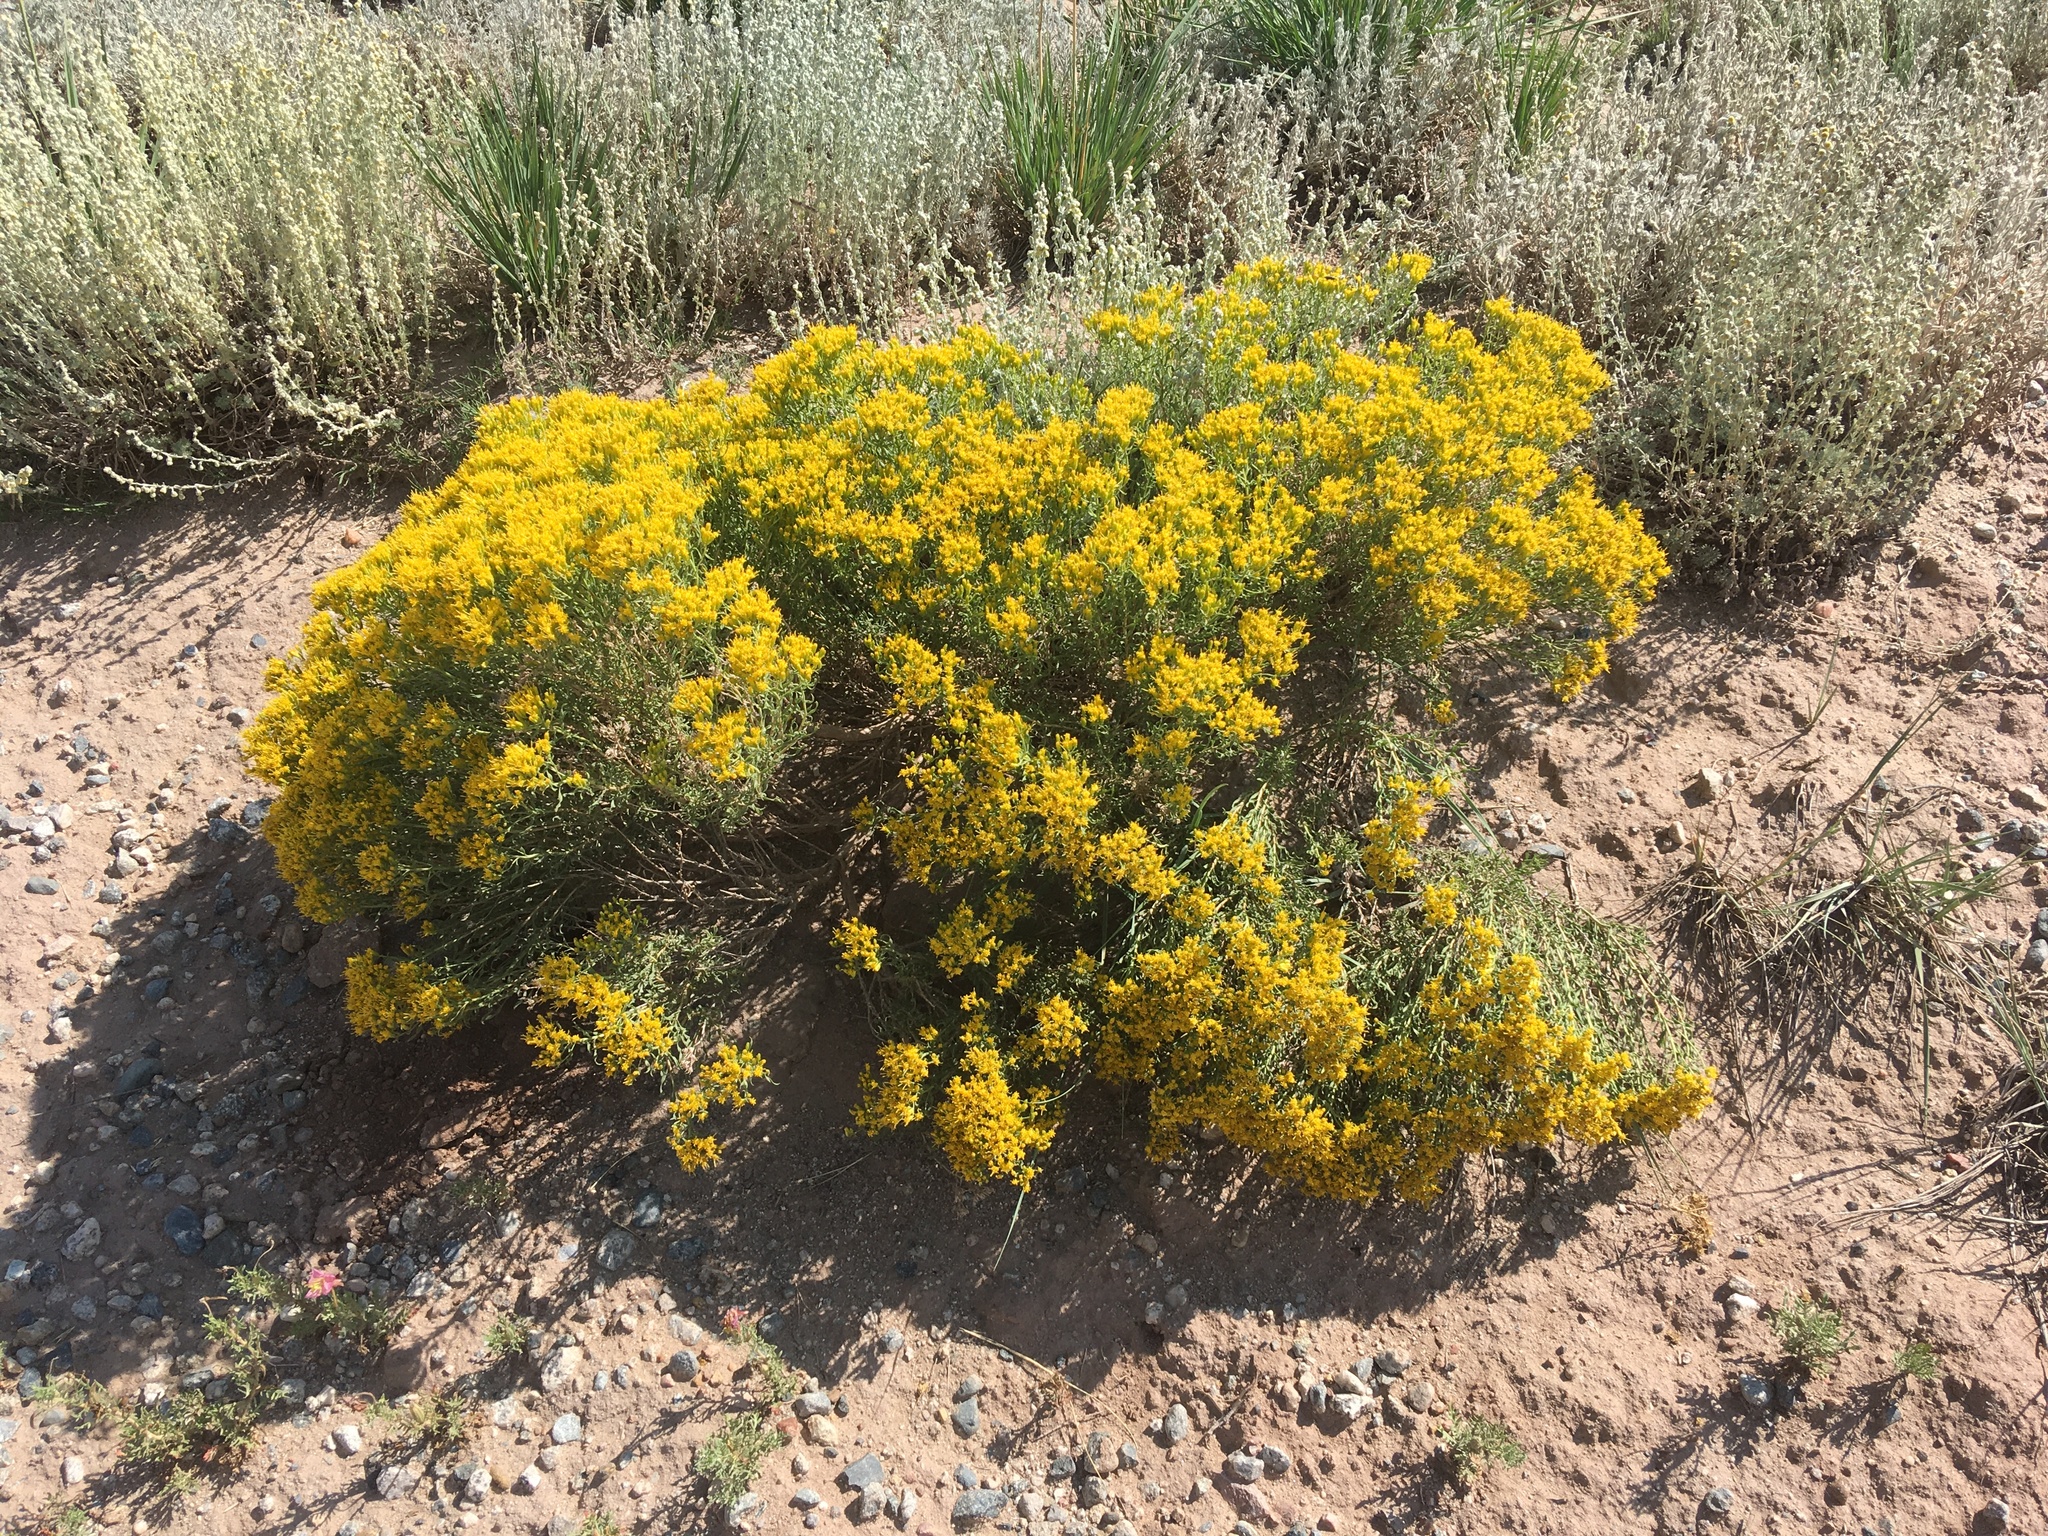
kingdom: Plantae
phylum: Tracheophyta
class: Magnoliopsida
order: Asterales
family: Asteraceae
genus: Chrysothamnus
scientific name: Chrysothamnus viscidiflorus
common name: Yellow rabbitbrush
